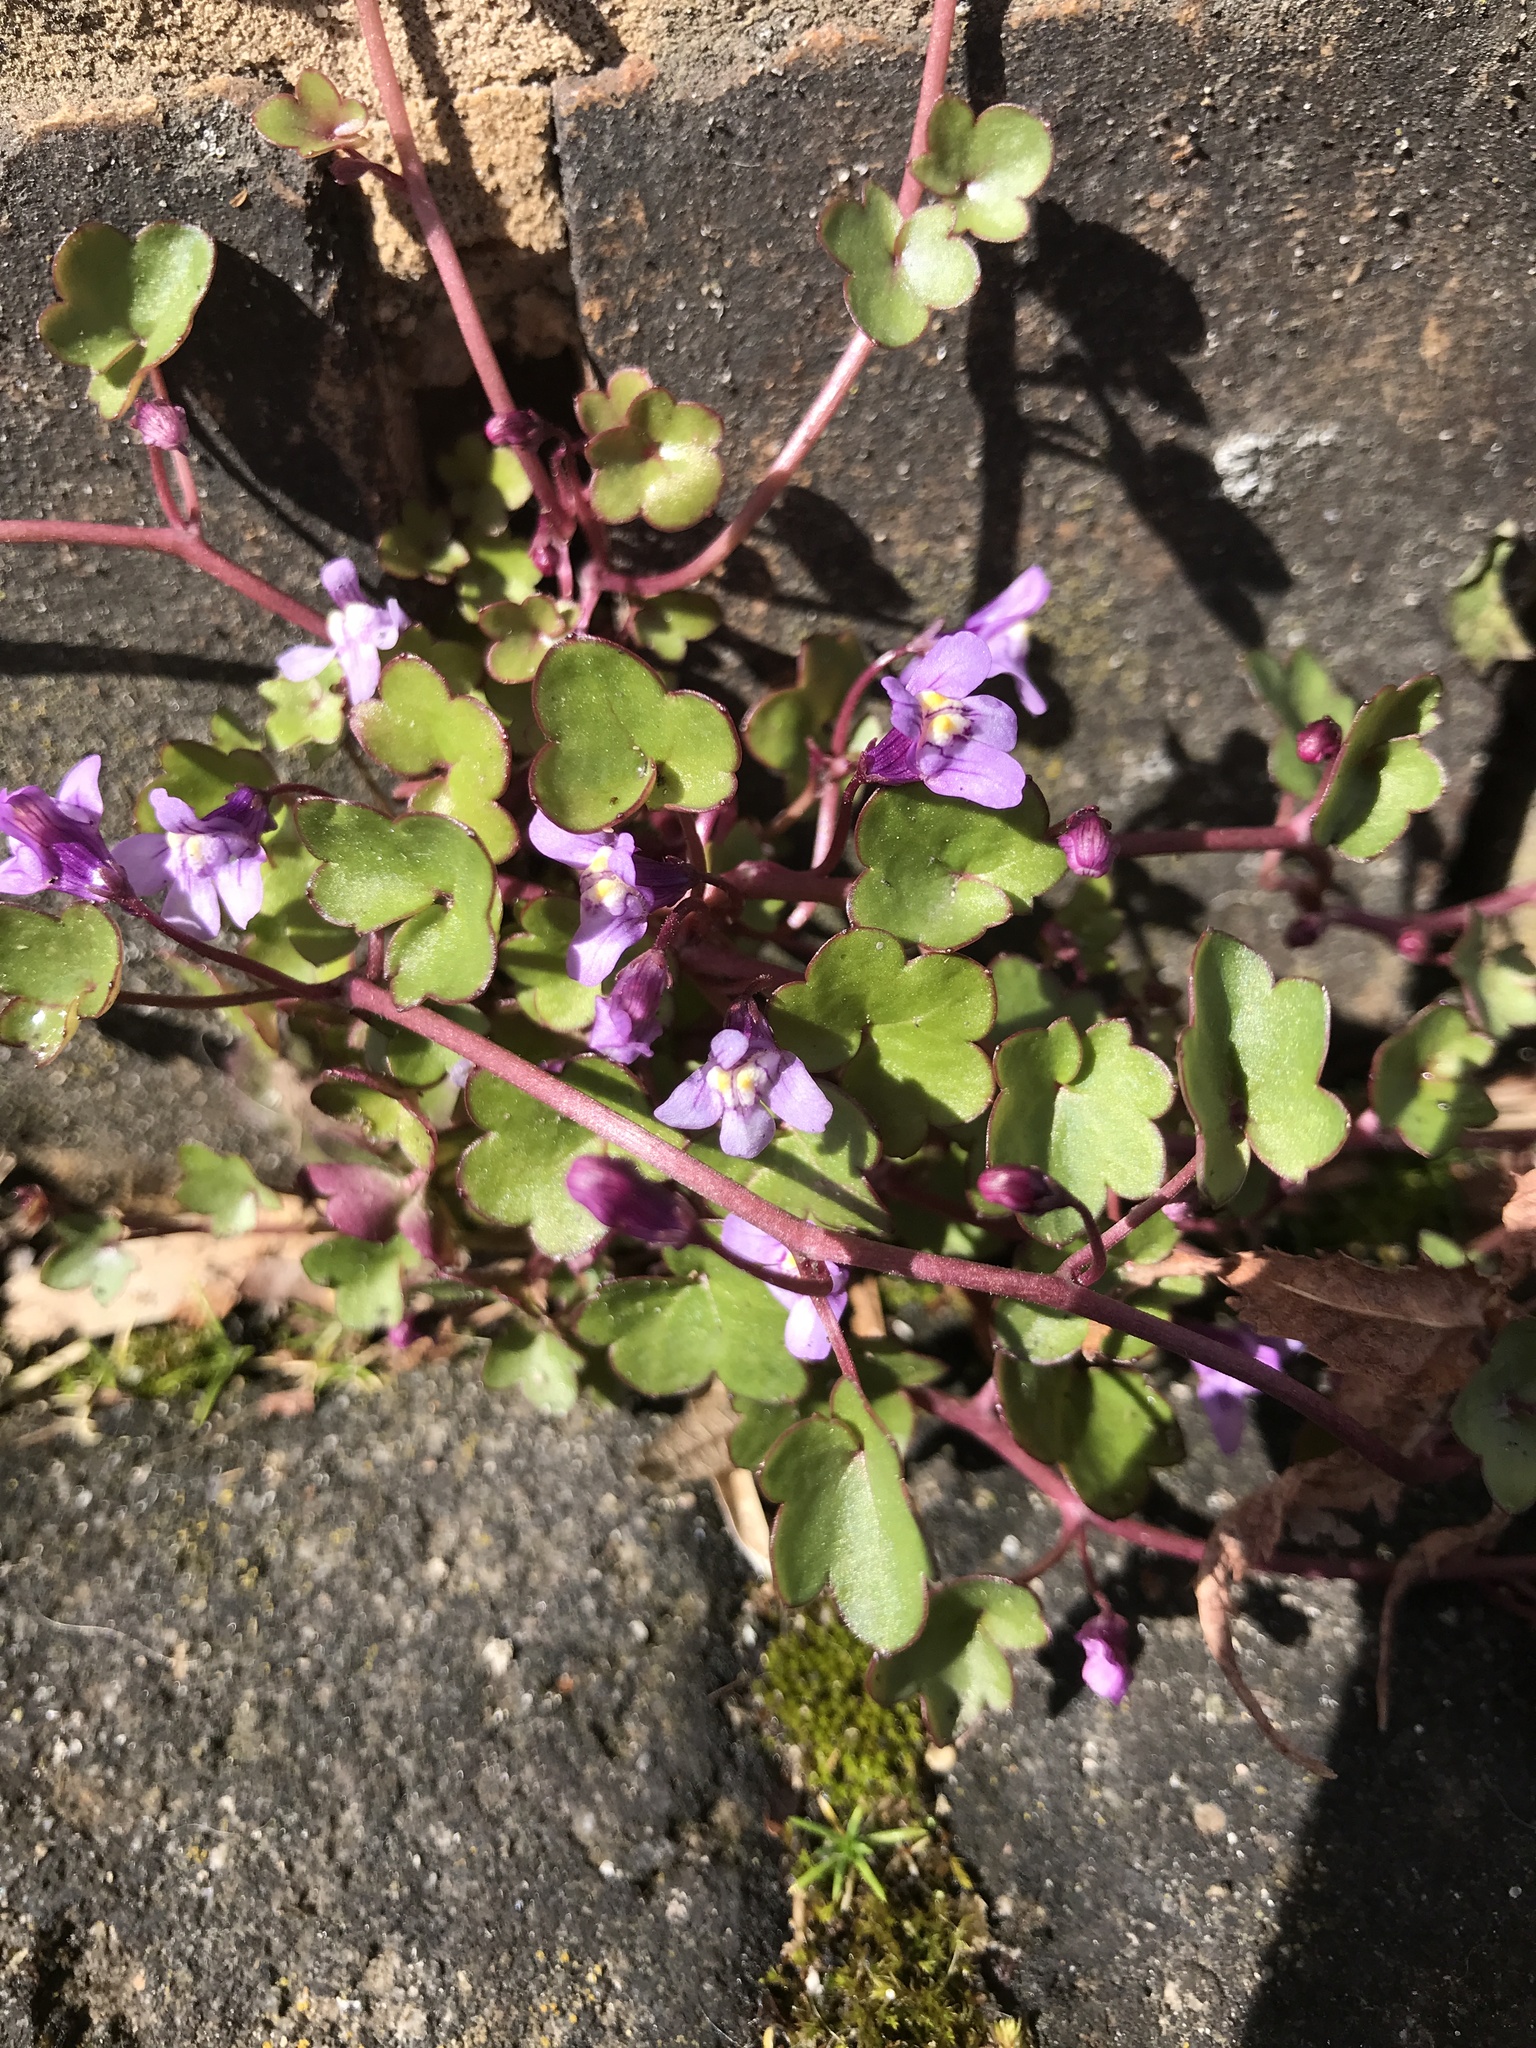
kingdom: Plantae
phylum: Tracheophyta
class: Magnoliopsida
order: Lamiales
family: Plantaginaceae
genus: Cymbalaria
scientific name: Cymbalaria muralis
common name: Ivy-leaved toadflax
